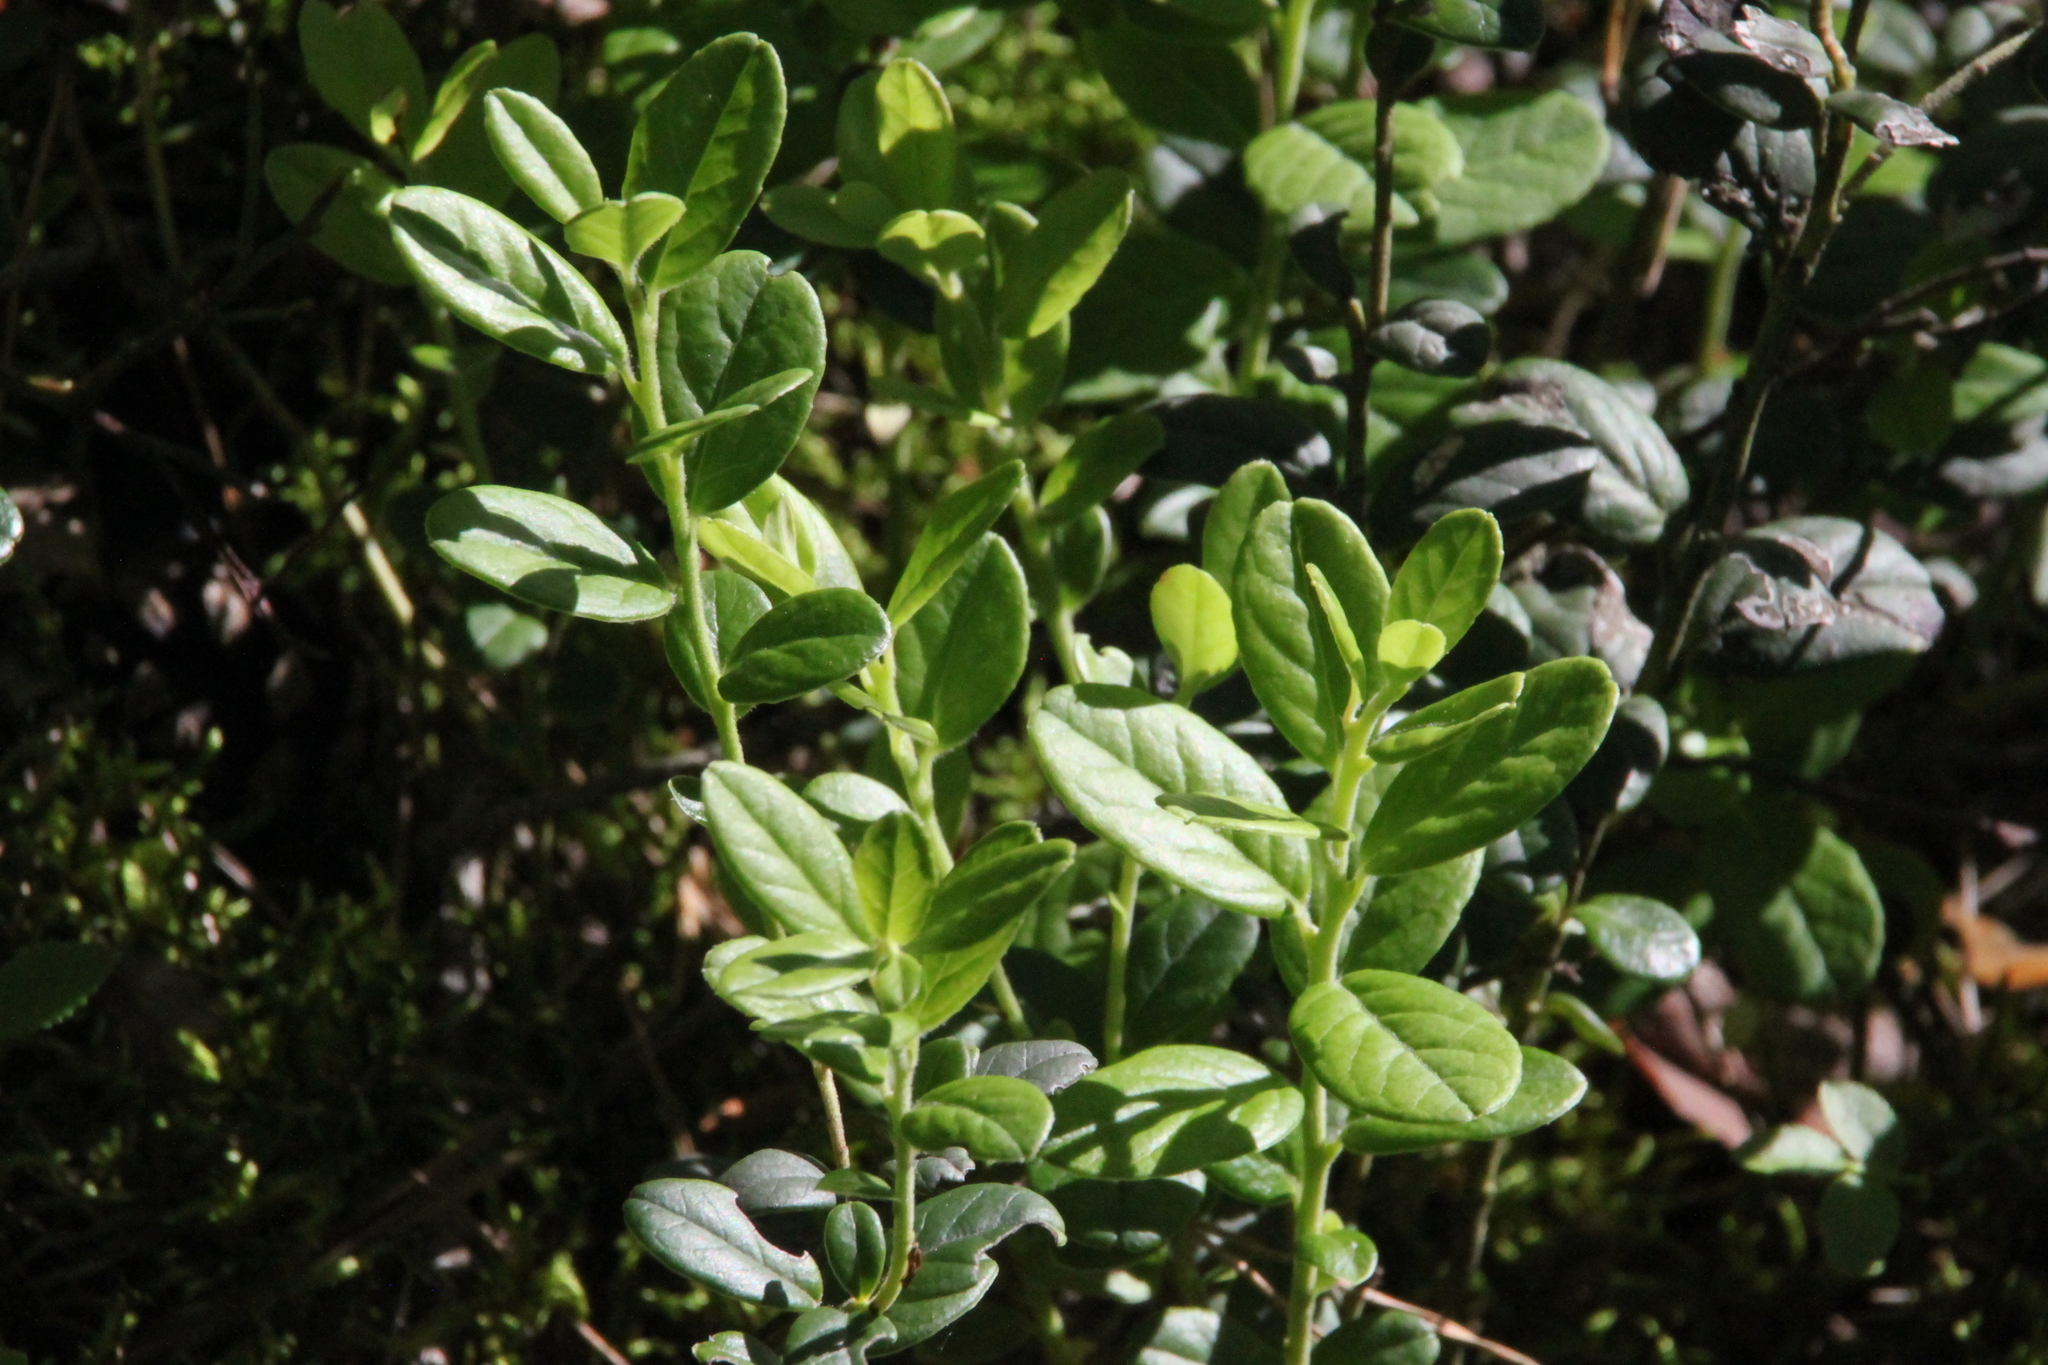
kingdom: Plantae
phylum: Tracheophyta
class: Magnoliopsida
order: Ericales
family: Ericaceae
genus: Vaccinium
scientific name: Vaccinium vitis-idaea
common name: Cowberry
